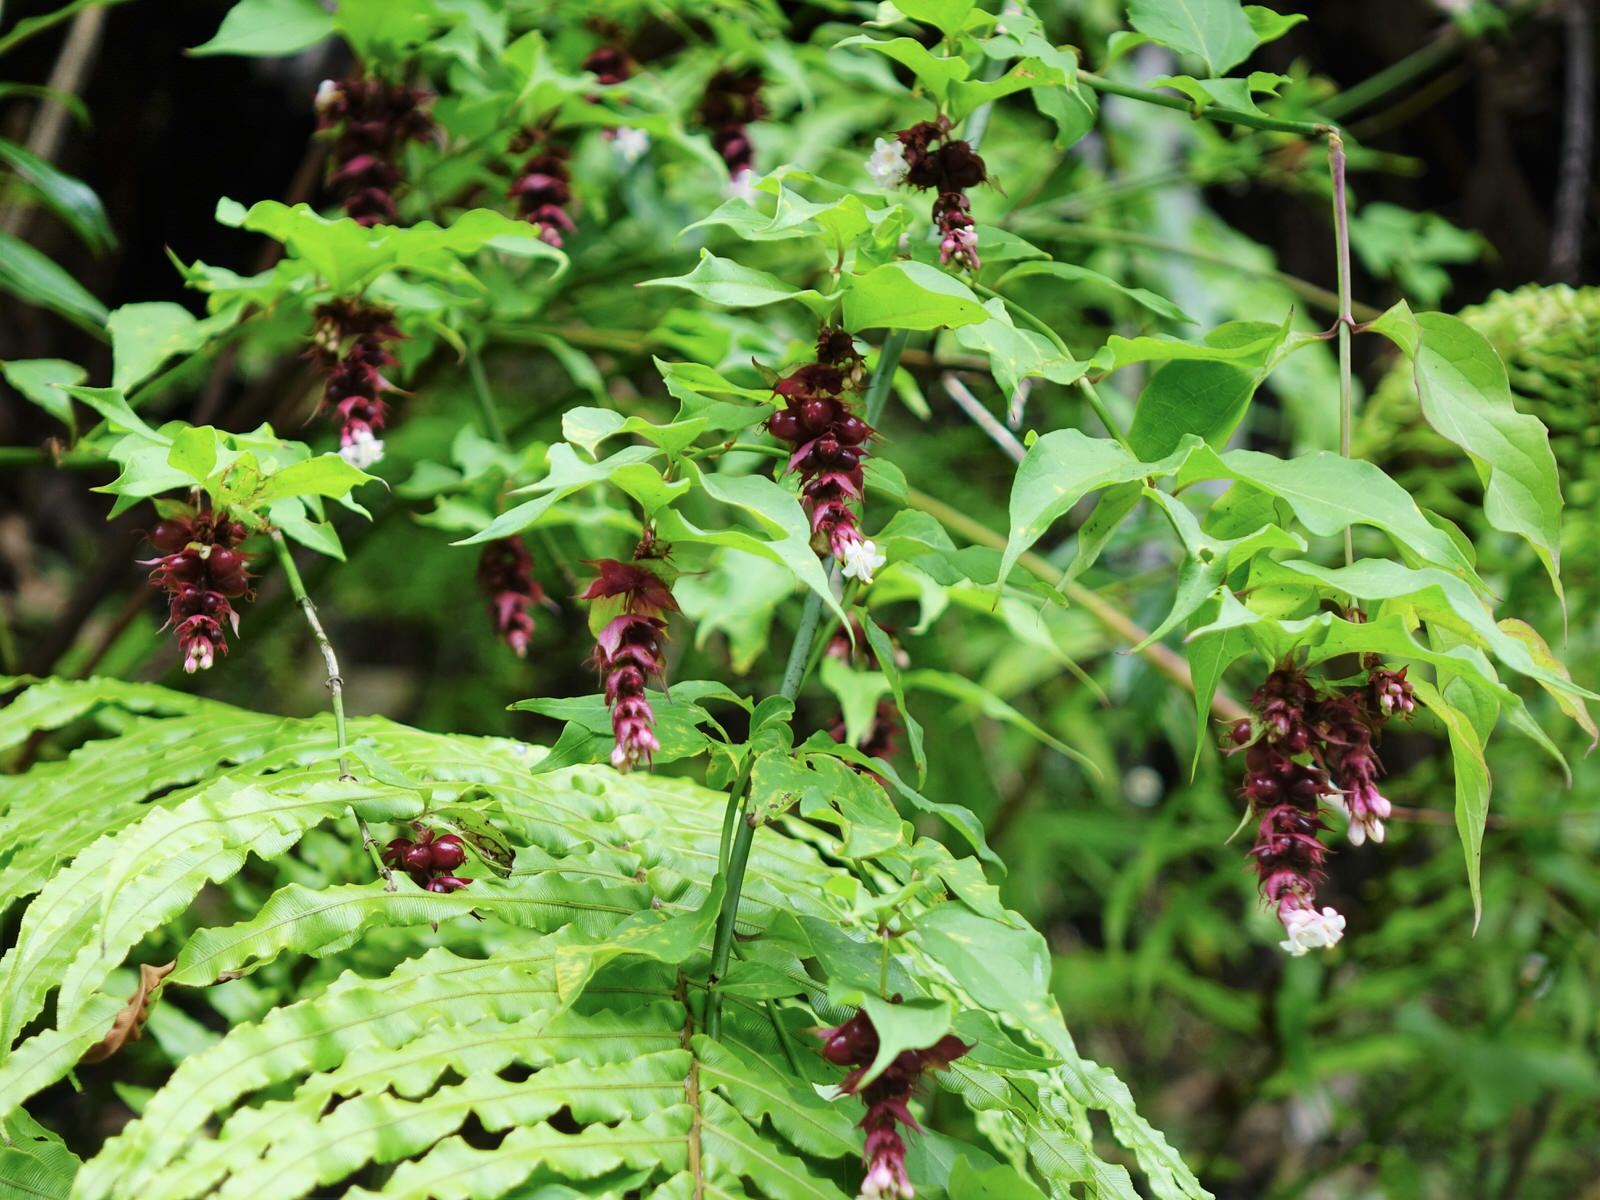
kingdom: Plantae
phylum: Tracheophyta
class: Magnoliopsida
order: Dipsacales
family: Caprifoliaceae
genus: Leycesteria
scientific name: Leycesteria formosa
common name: Himalayan honeysuckle
